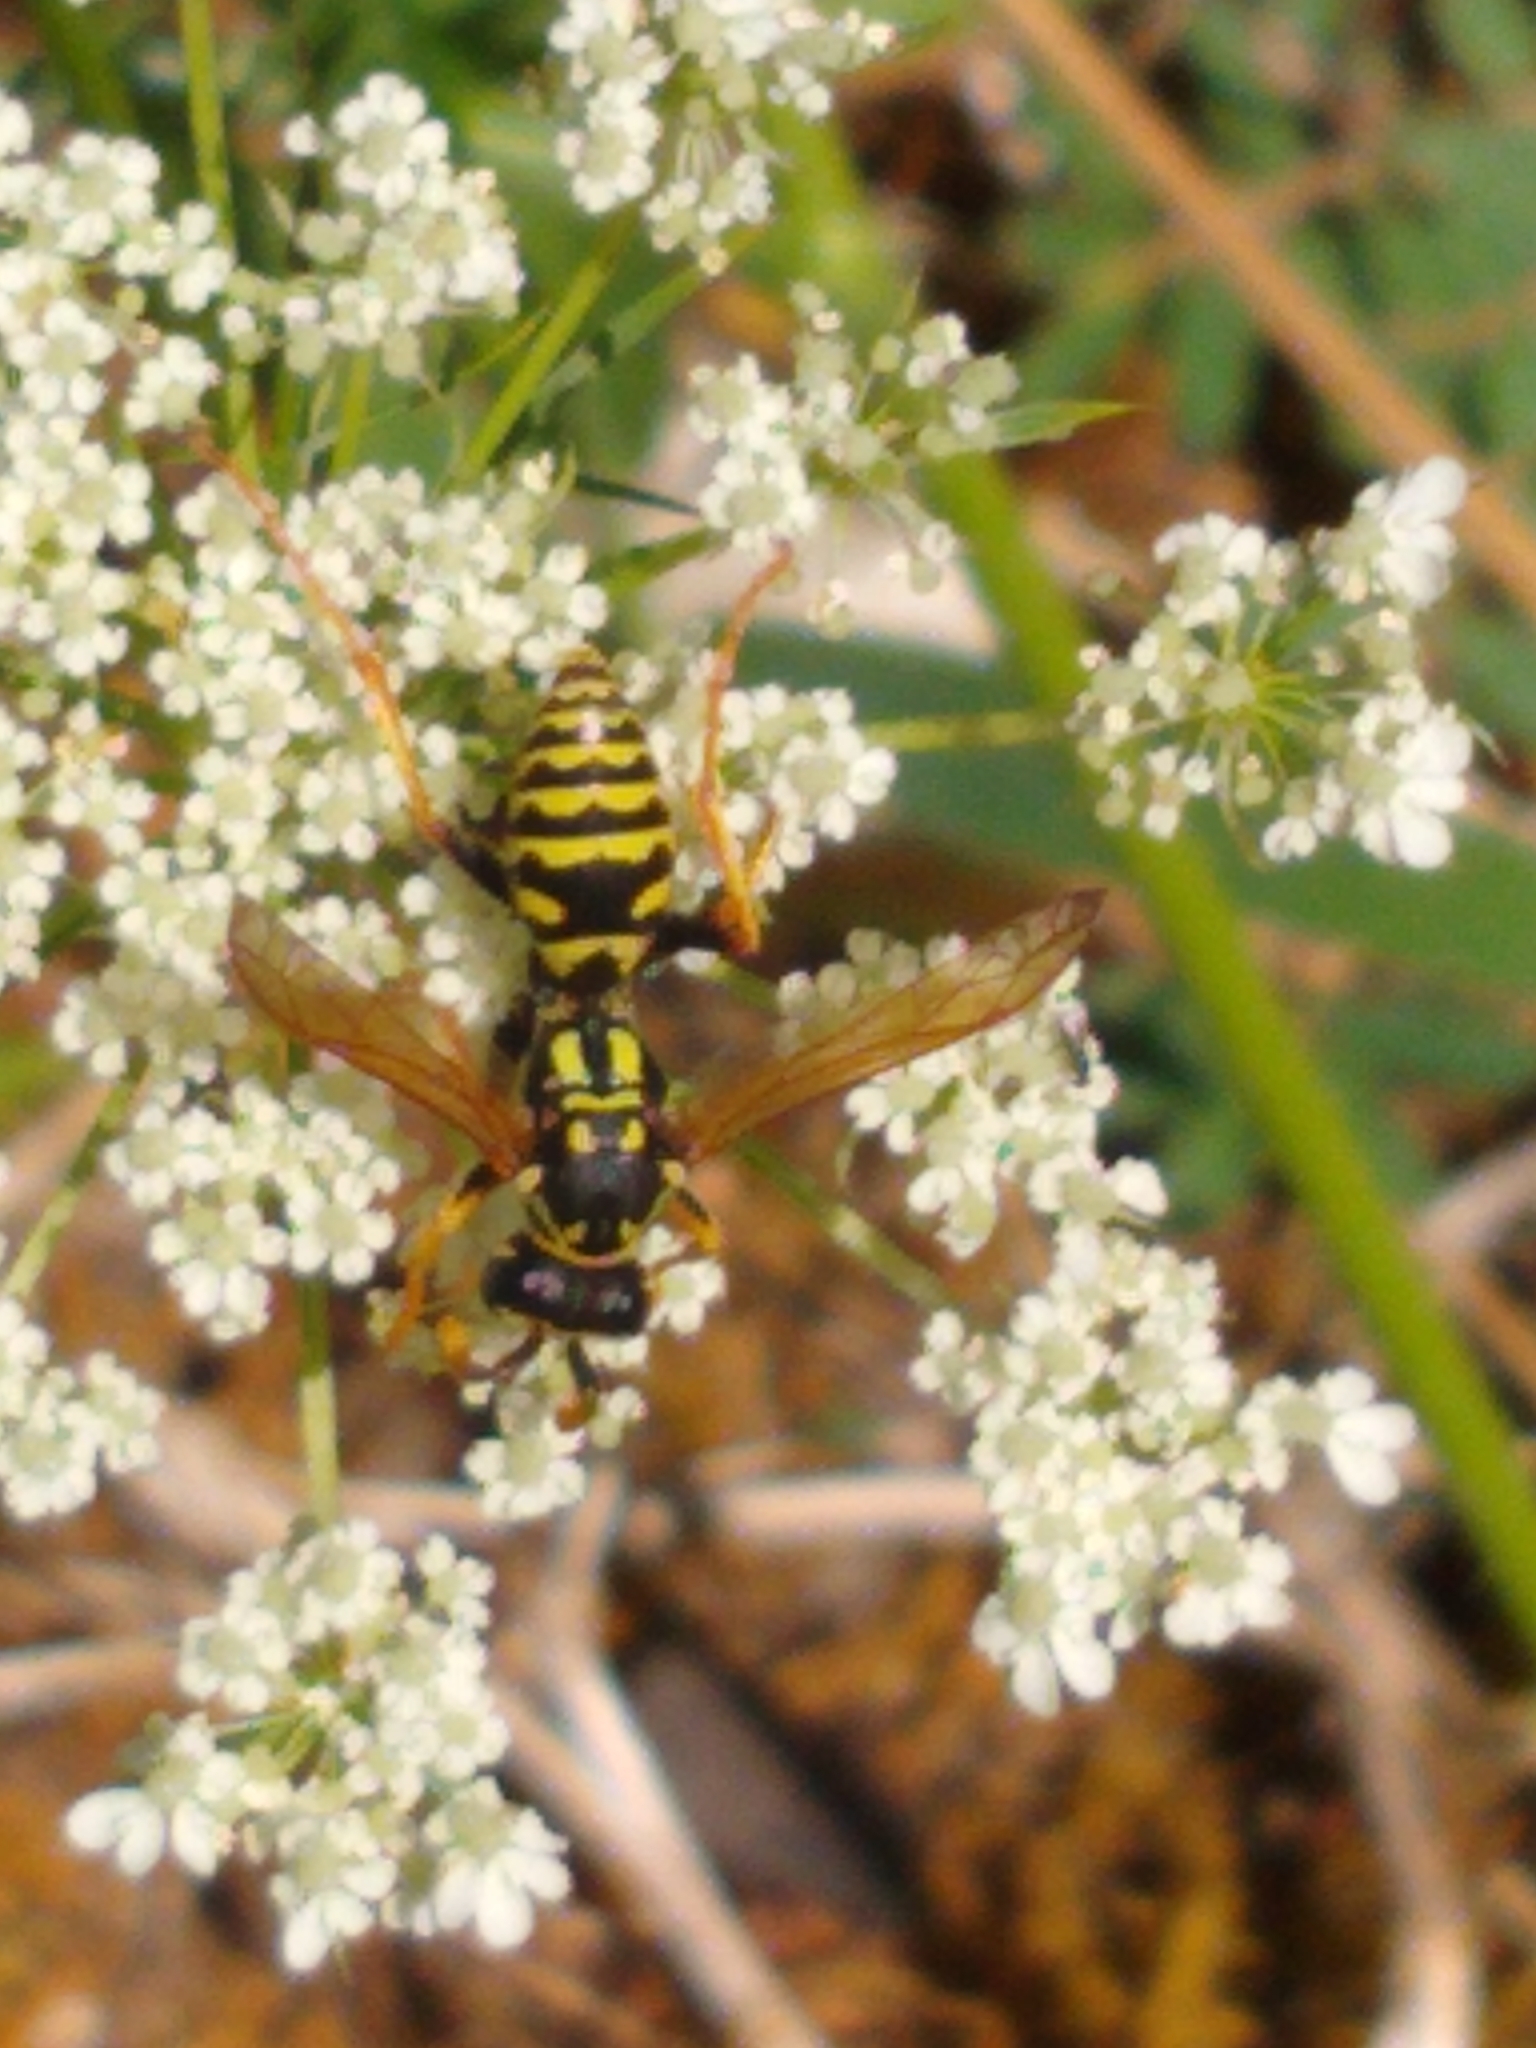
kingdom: Animalia
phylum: Arthropoda
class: Insecta
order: Hymenoptera
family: Eumenidae
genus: Polistes
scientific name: Polistes dominula
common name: Paper wasp
